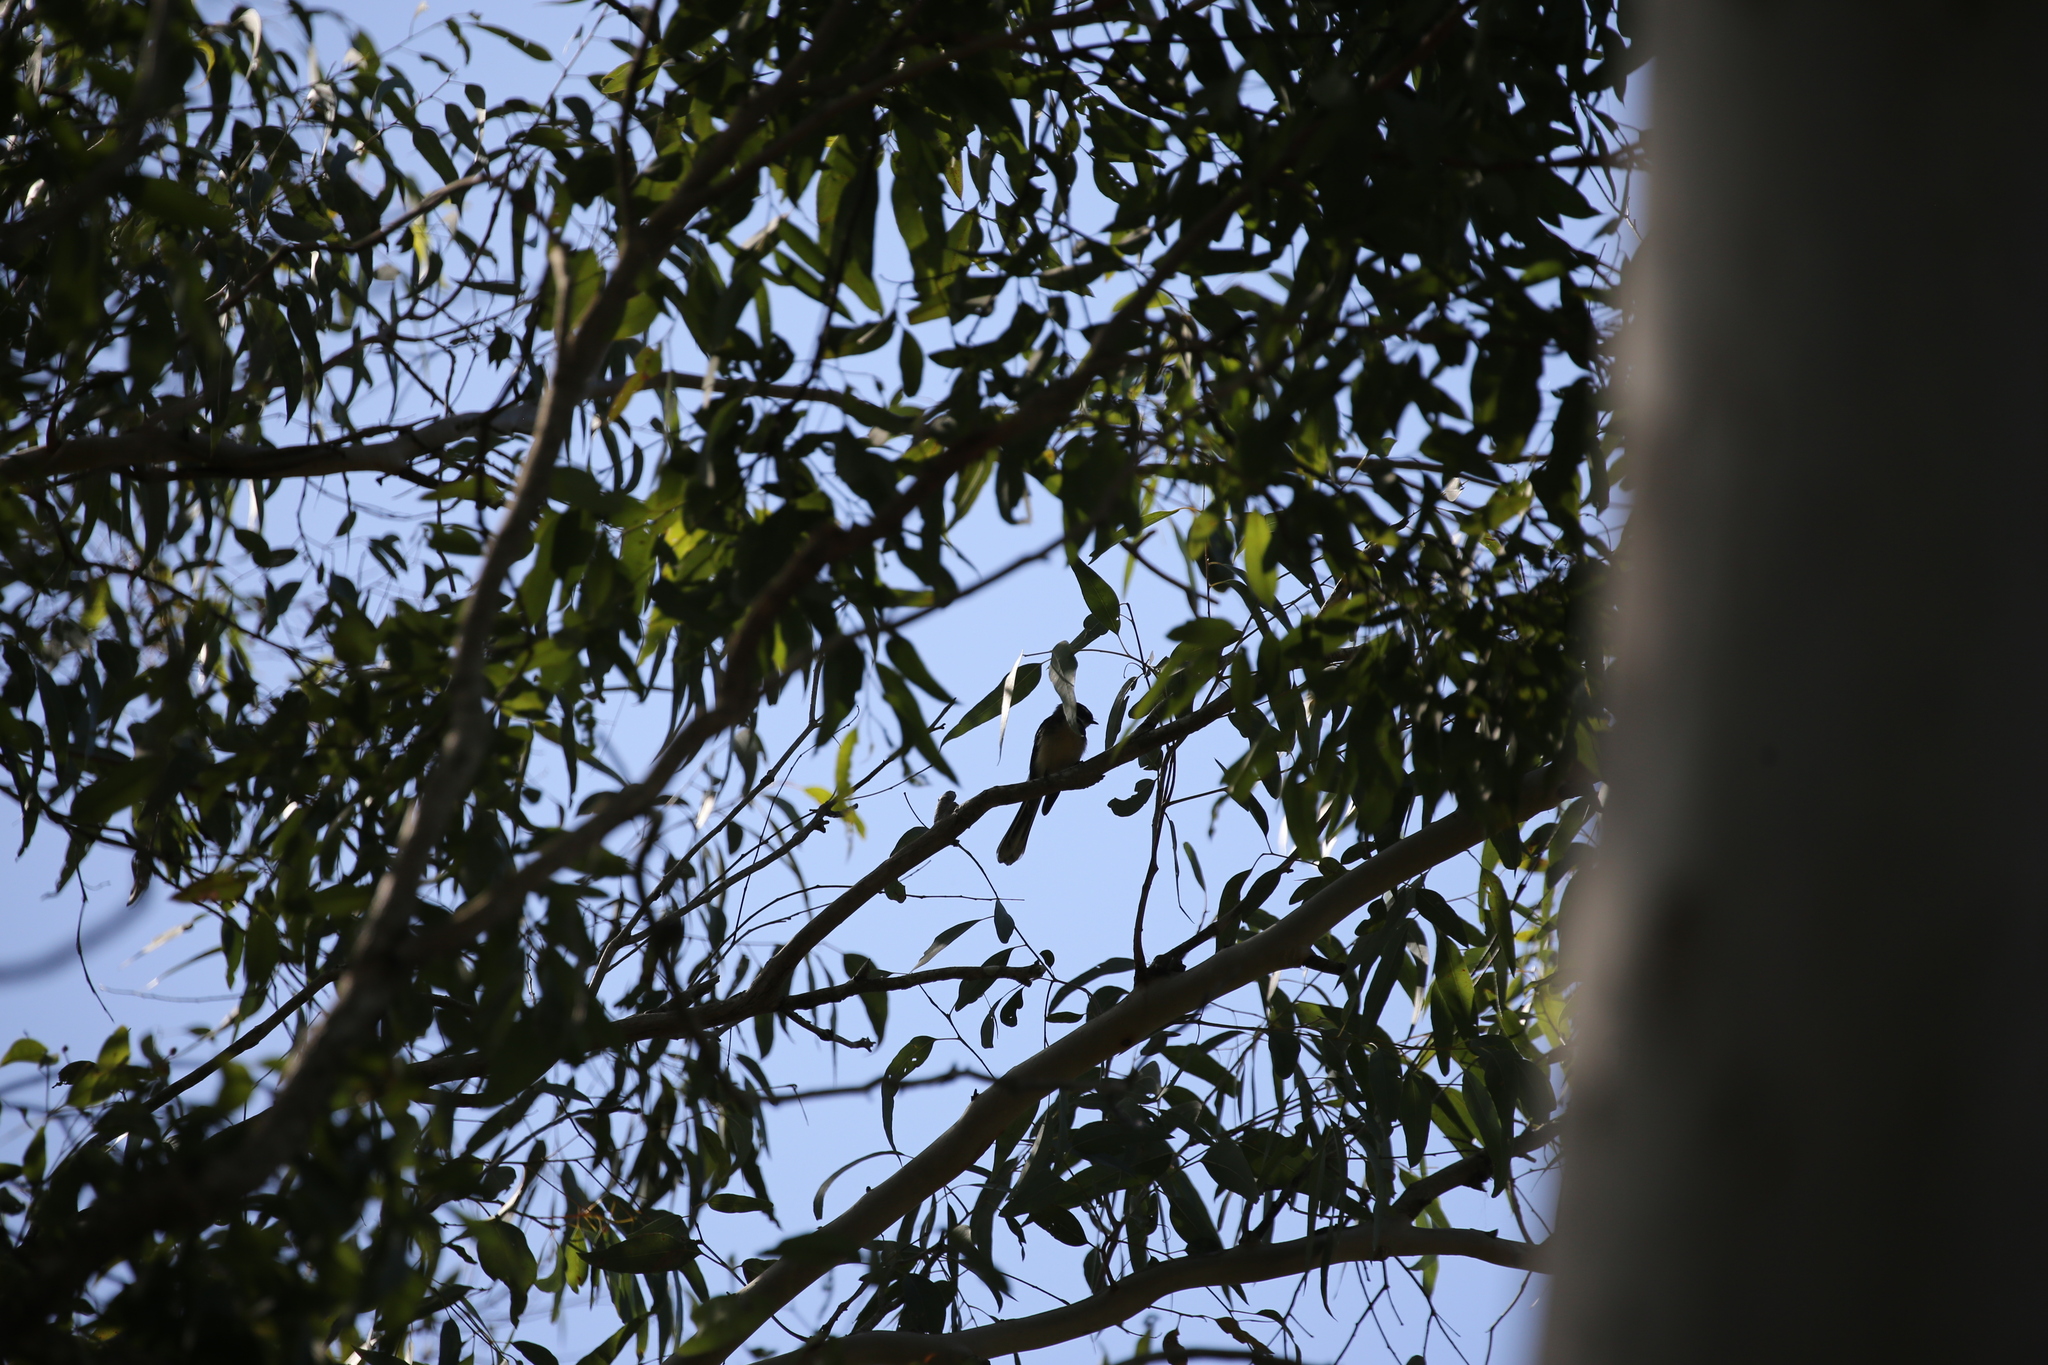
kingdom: Animalia
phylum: Chordata
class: Aves
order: Passeriformes
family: Rhipiduridae
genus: Rhipidura
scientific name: Rhipidura albiscapa
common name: Grey fantail
